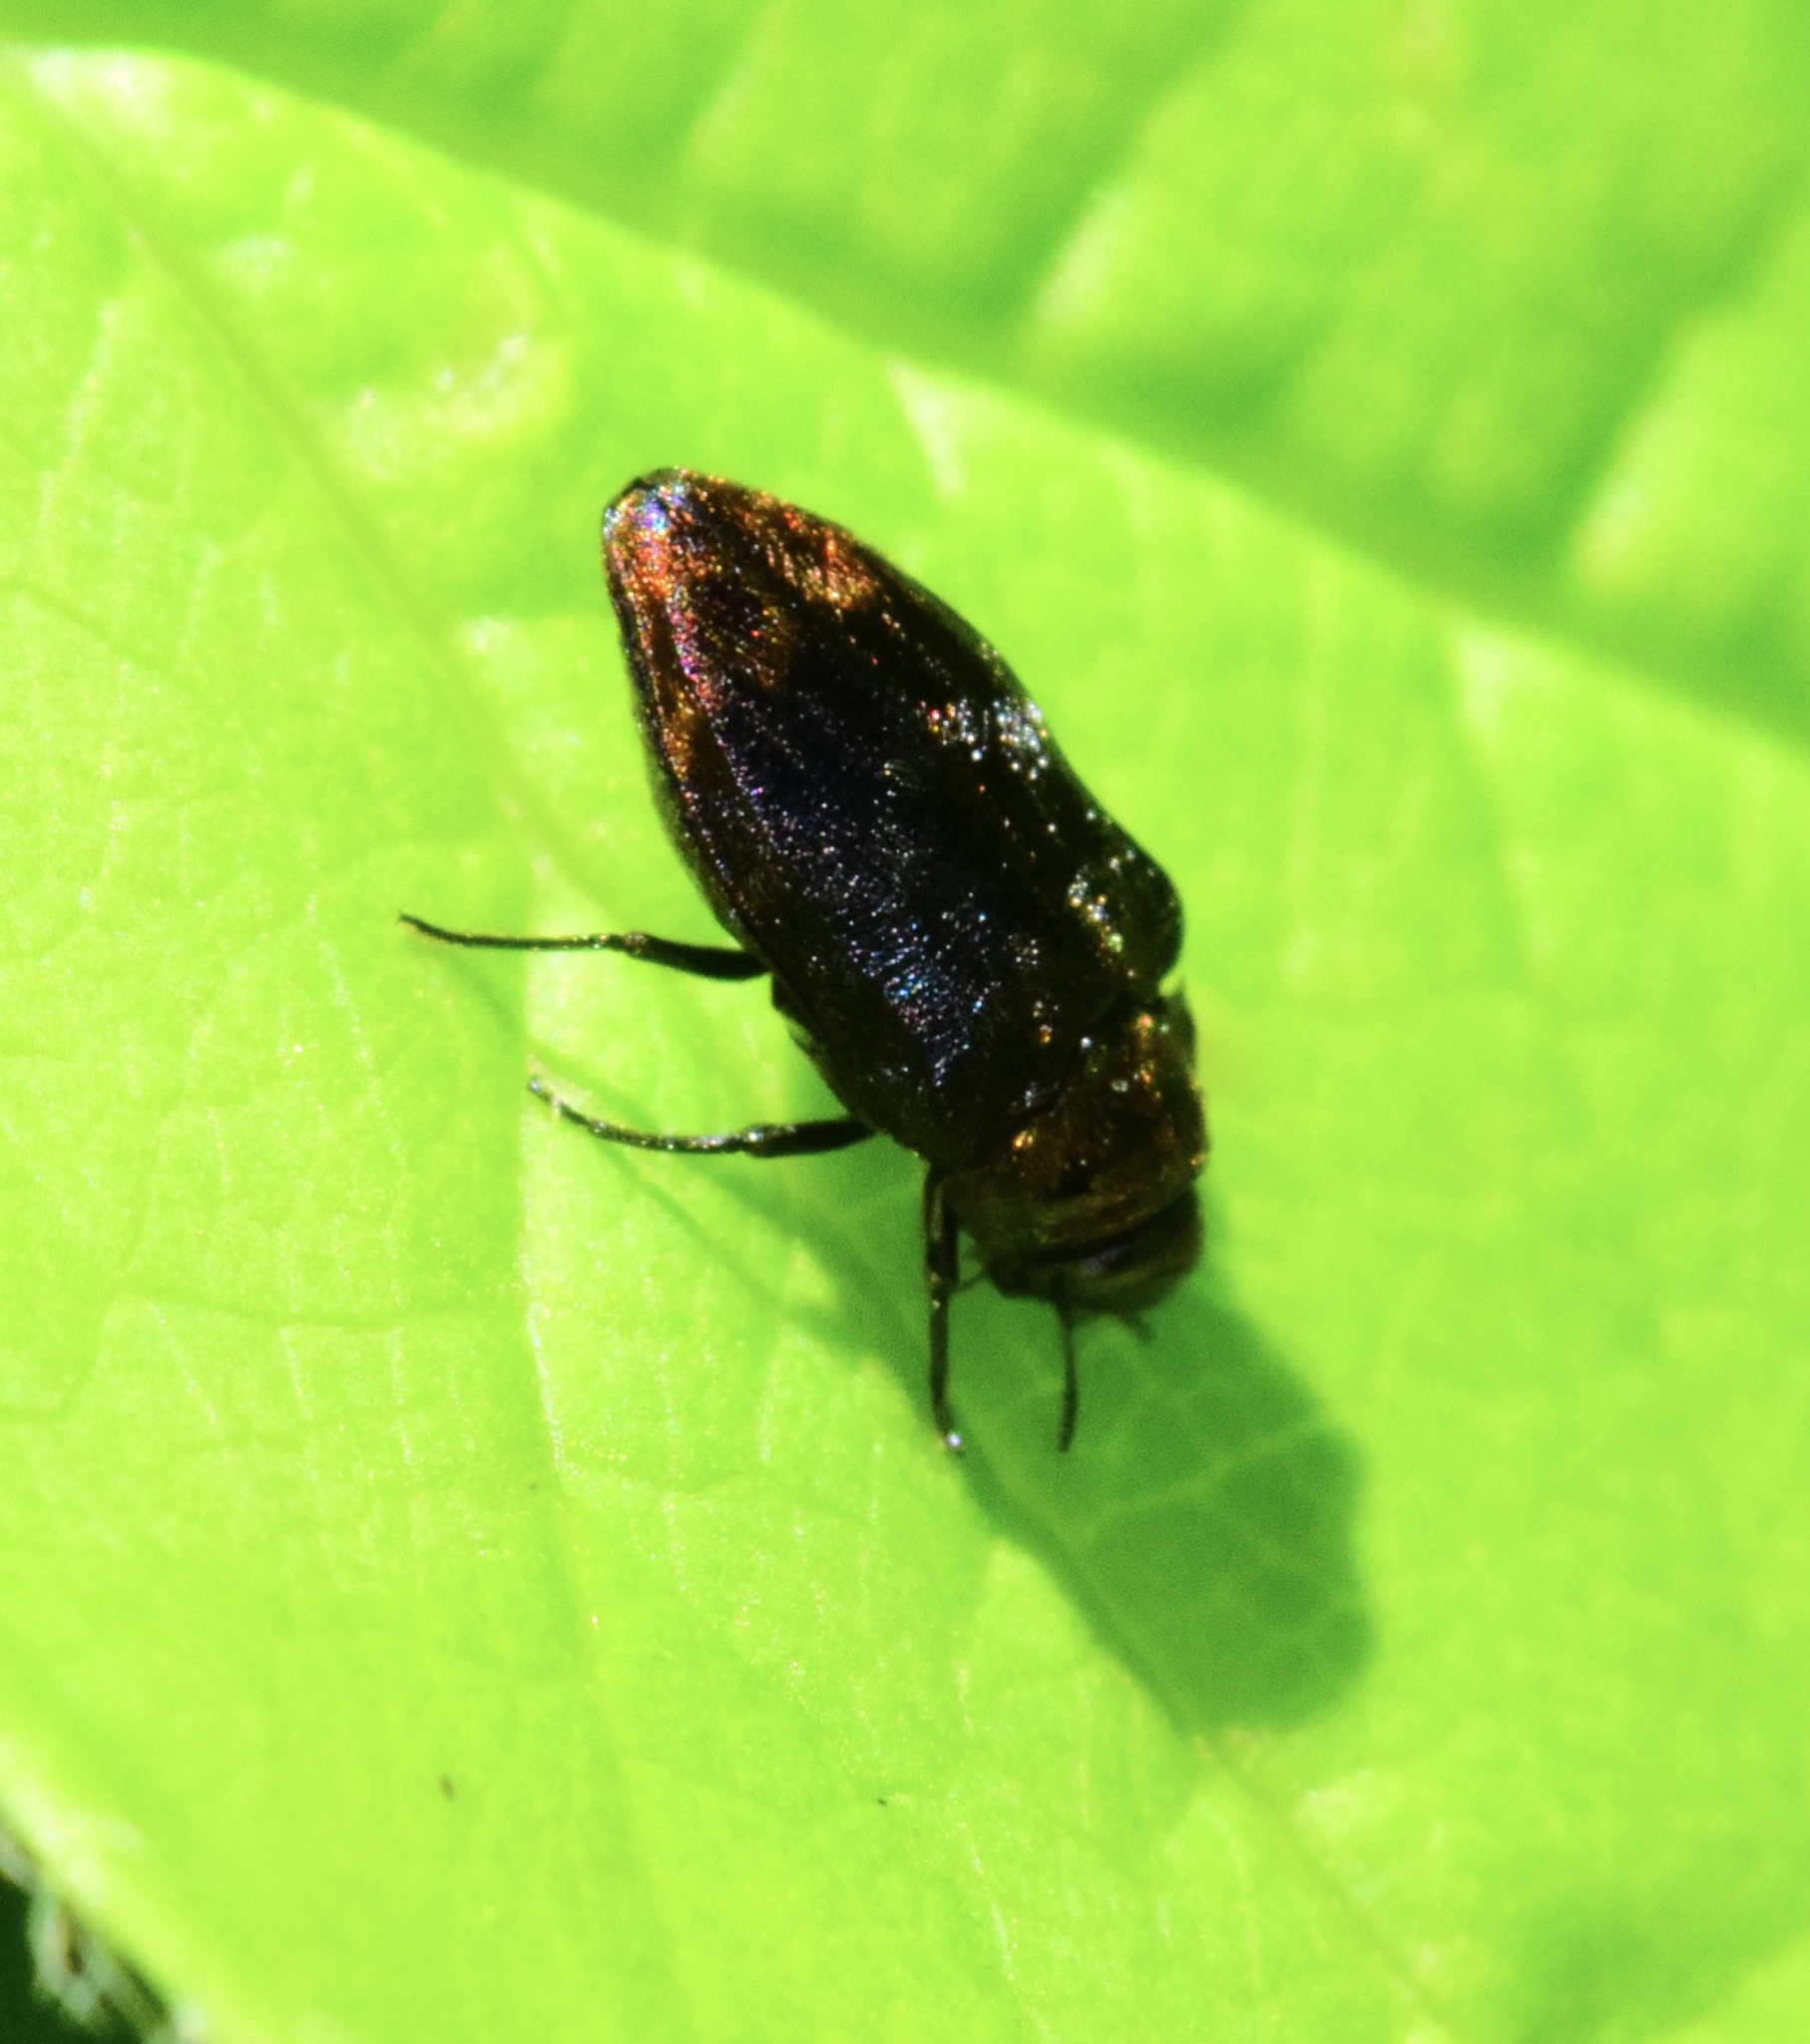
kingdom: Animalia
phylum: Arthropoda
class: Insecta
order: Coleoptera
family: Buprestidae
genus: Brachys
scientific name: Brachys aerosus
